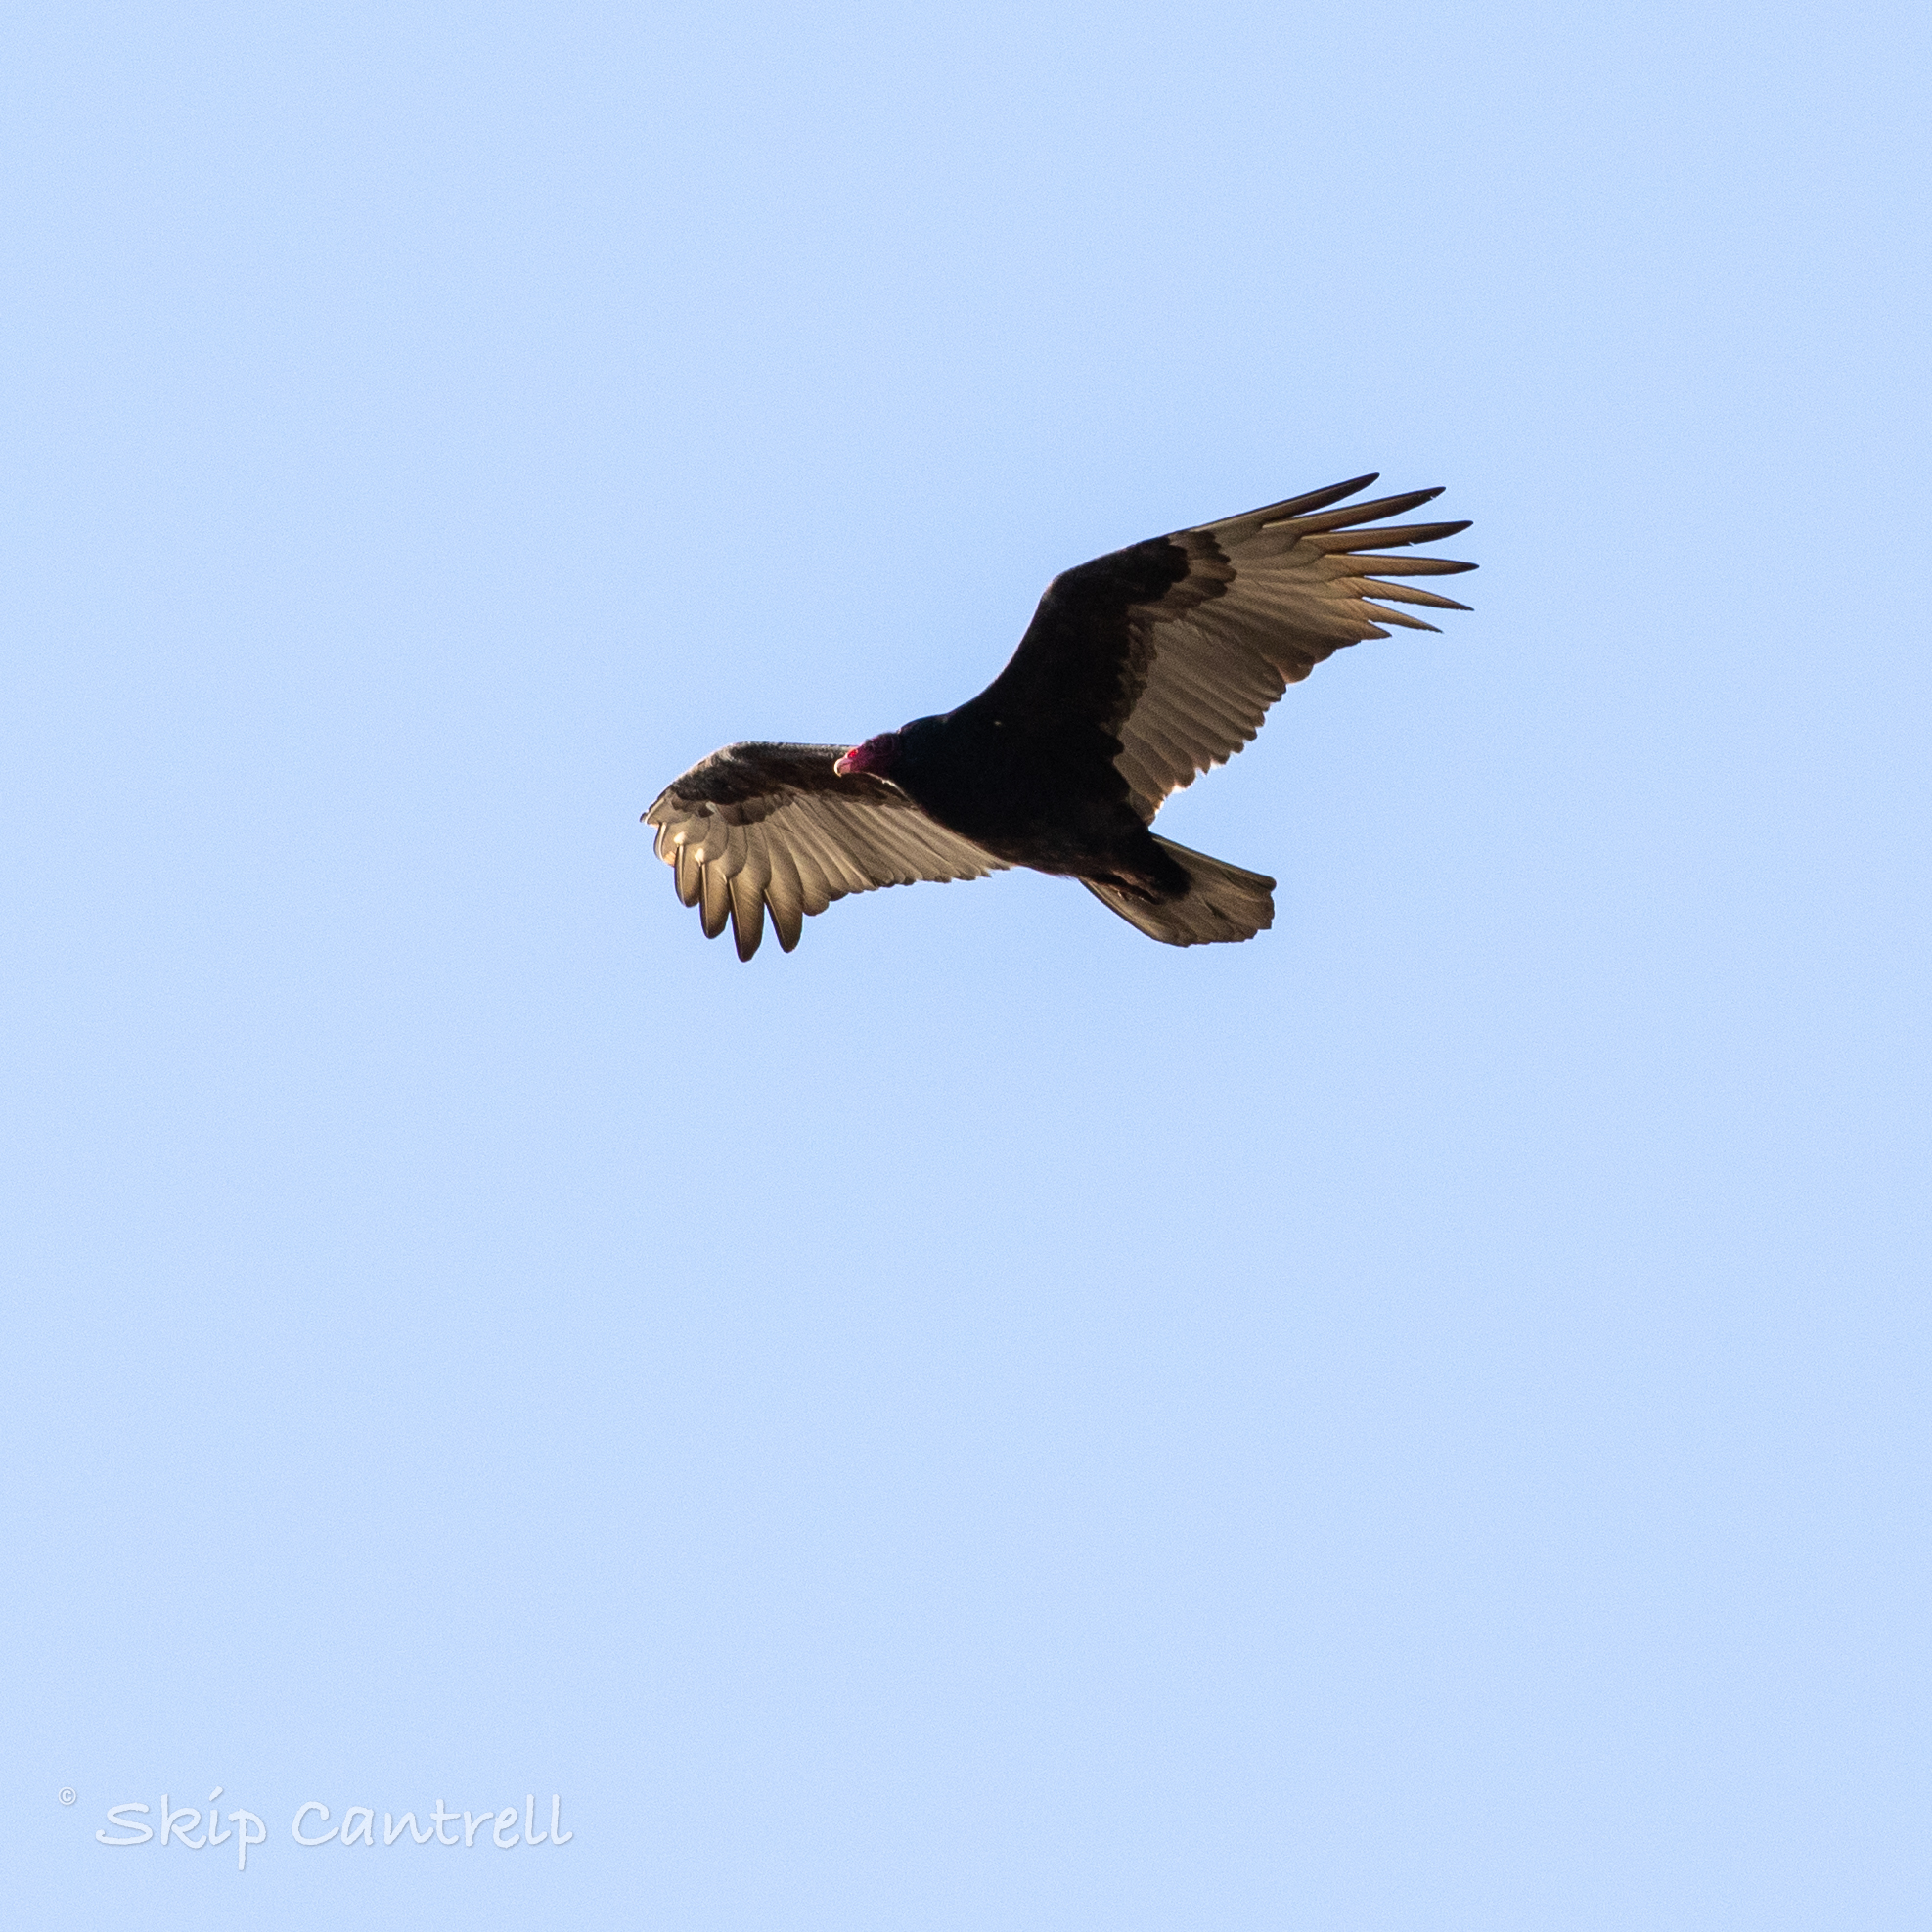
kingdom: Animalia
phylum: Chordata
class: Aves
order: Accipitriformes
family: Cathartidae
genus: Cathartes
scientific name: Cathartes aura
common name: Turkey vulture
